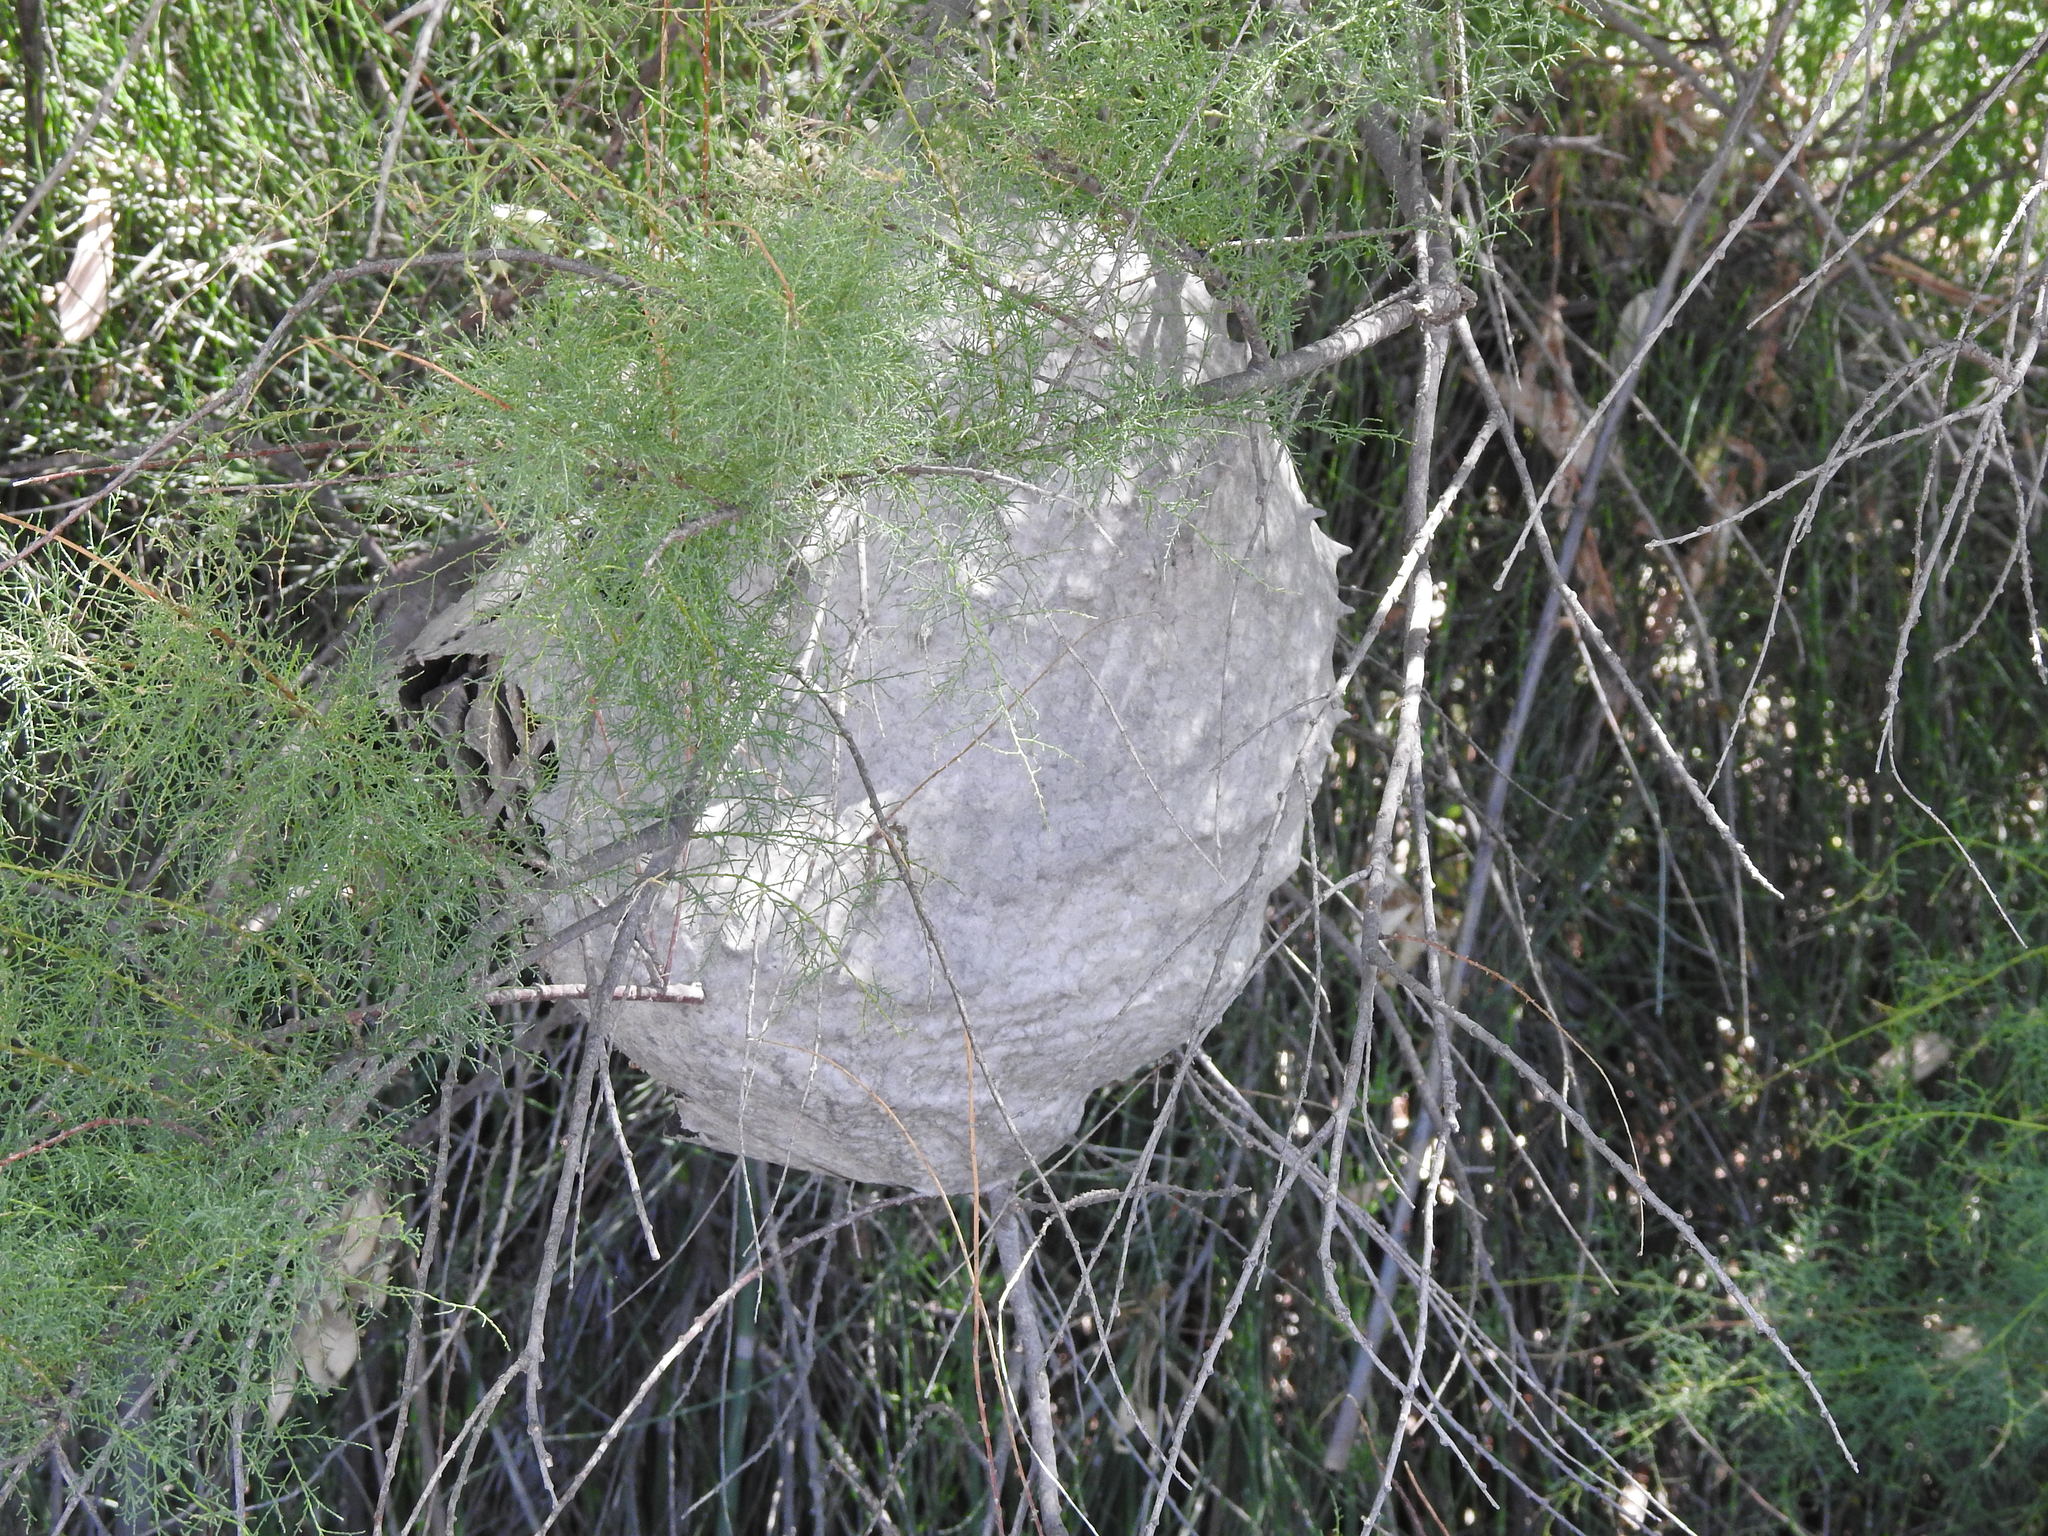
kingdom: Animalia
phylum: Arthropoda
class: Insecta
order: Hymenoptera
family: Eumenidae
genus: Polybia
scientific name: Polybia scutellaris
